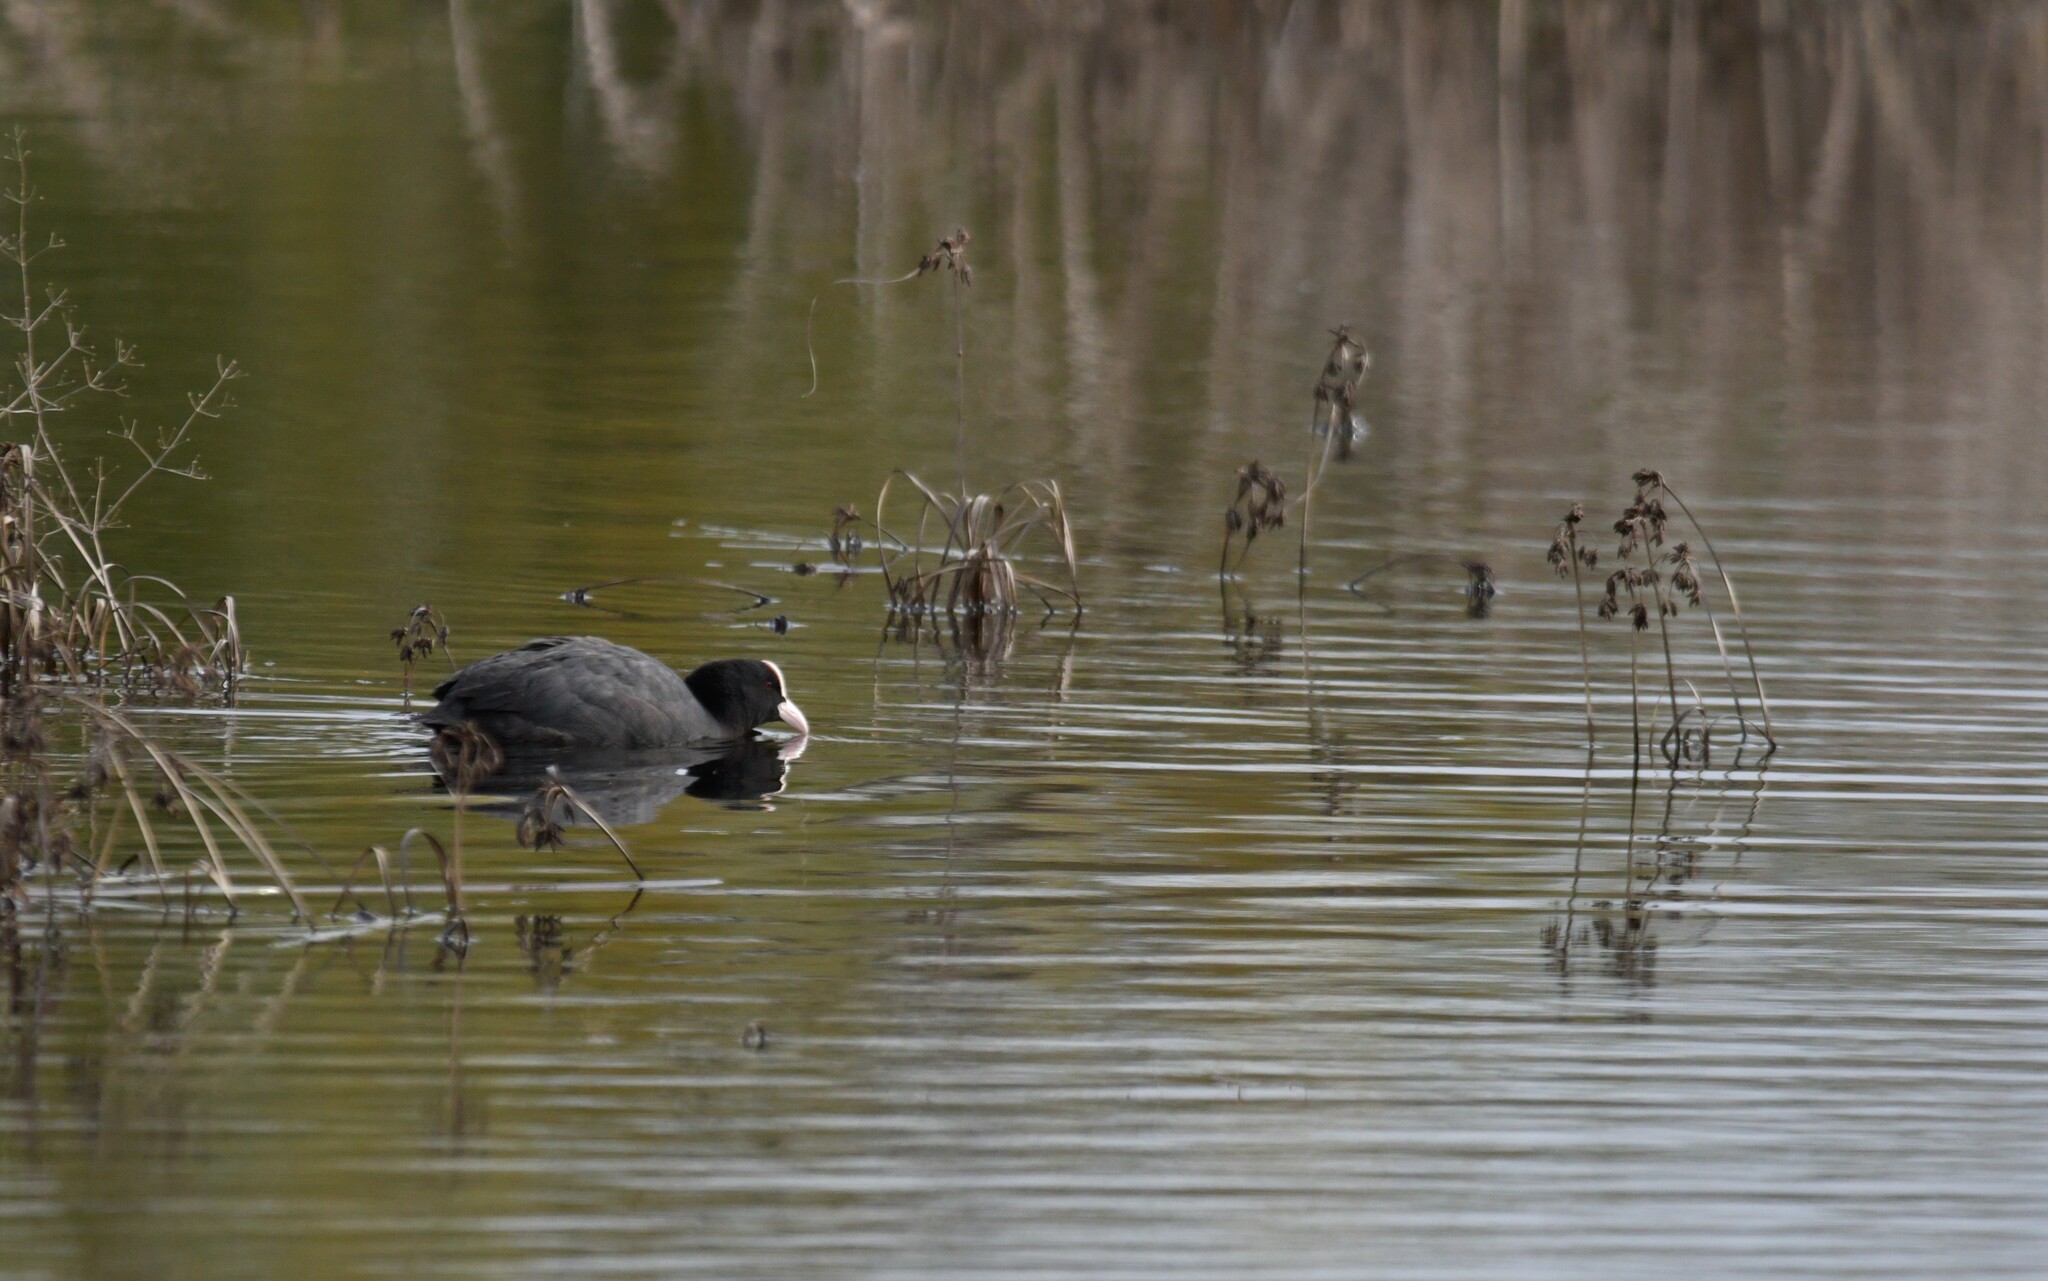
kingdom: Animalia
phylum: Chordata
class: Aves
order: Gruiformes
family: Rallidae
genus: Fulica
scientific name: Fulica atra
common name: Eurasian coot
